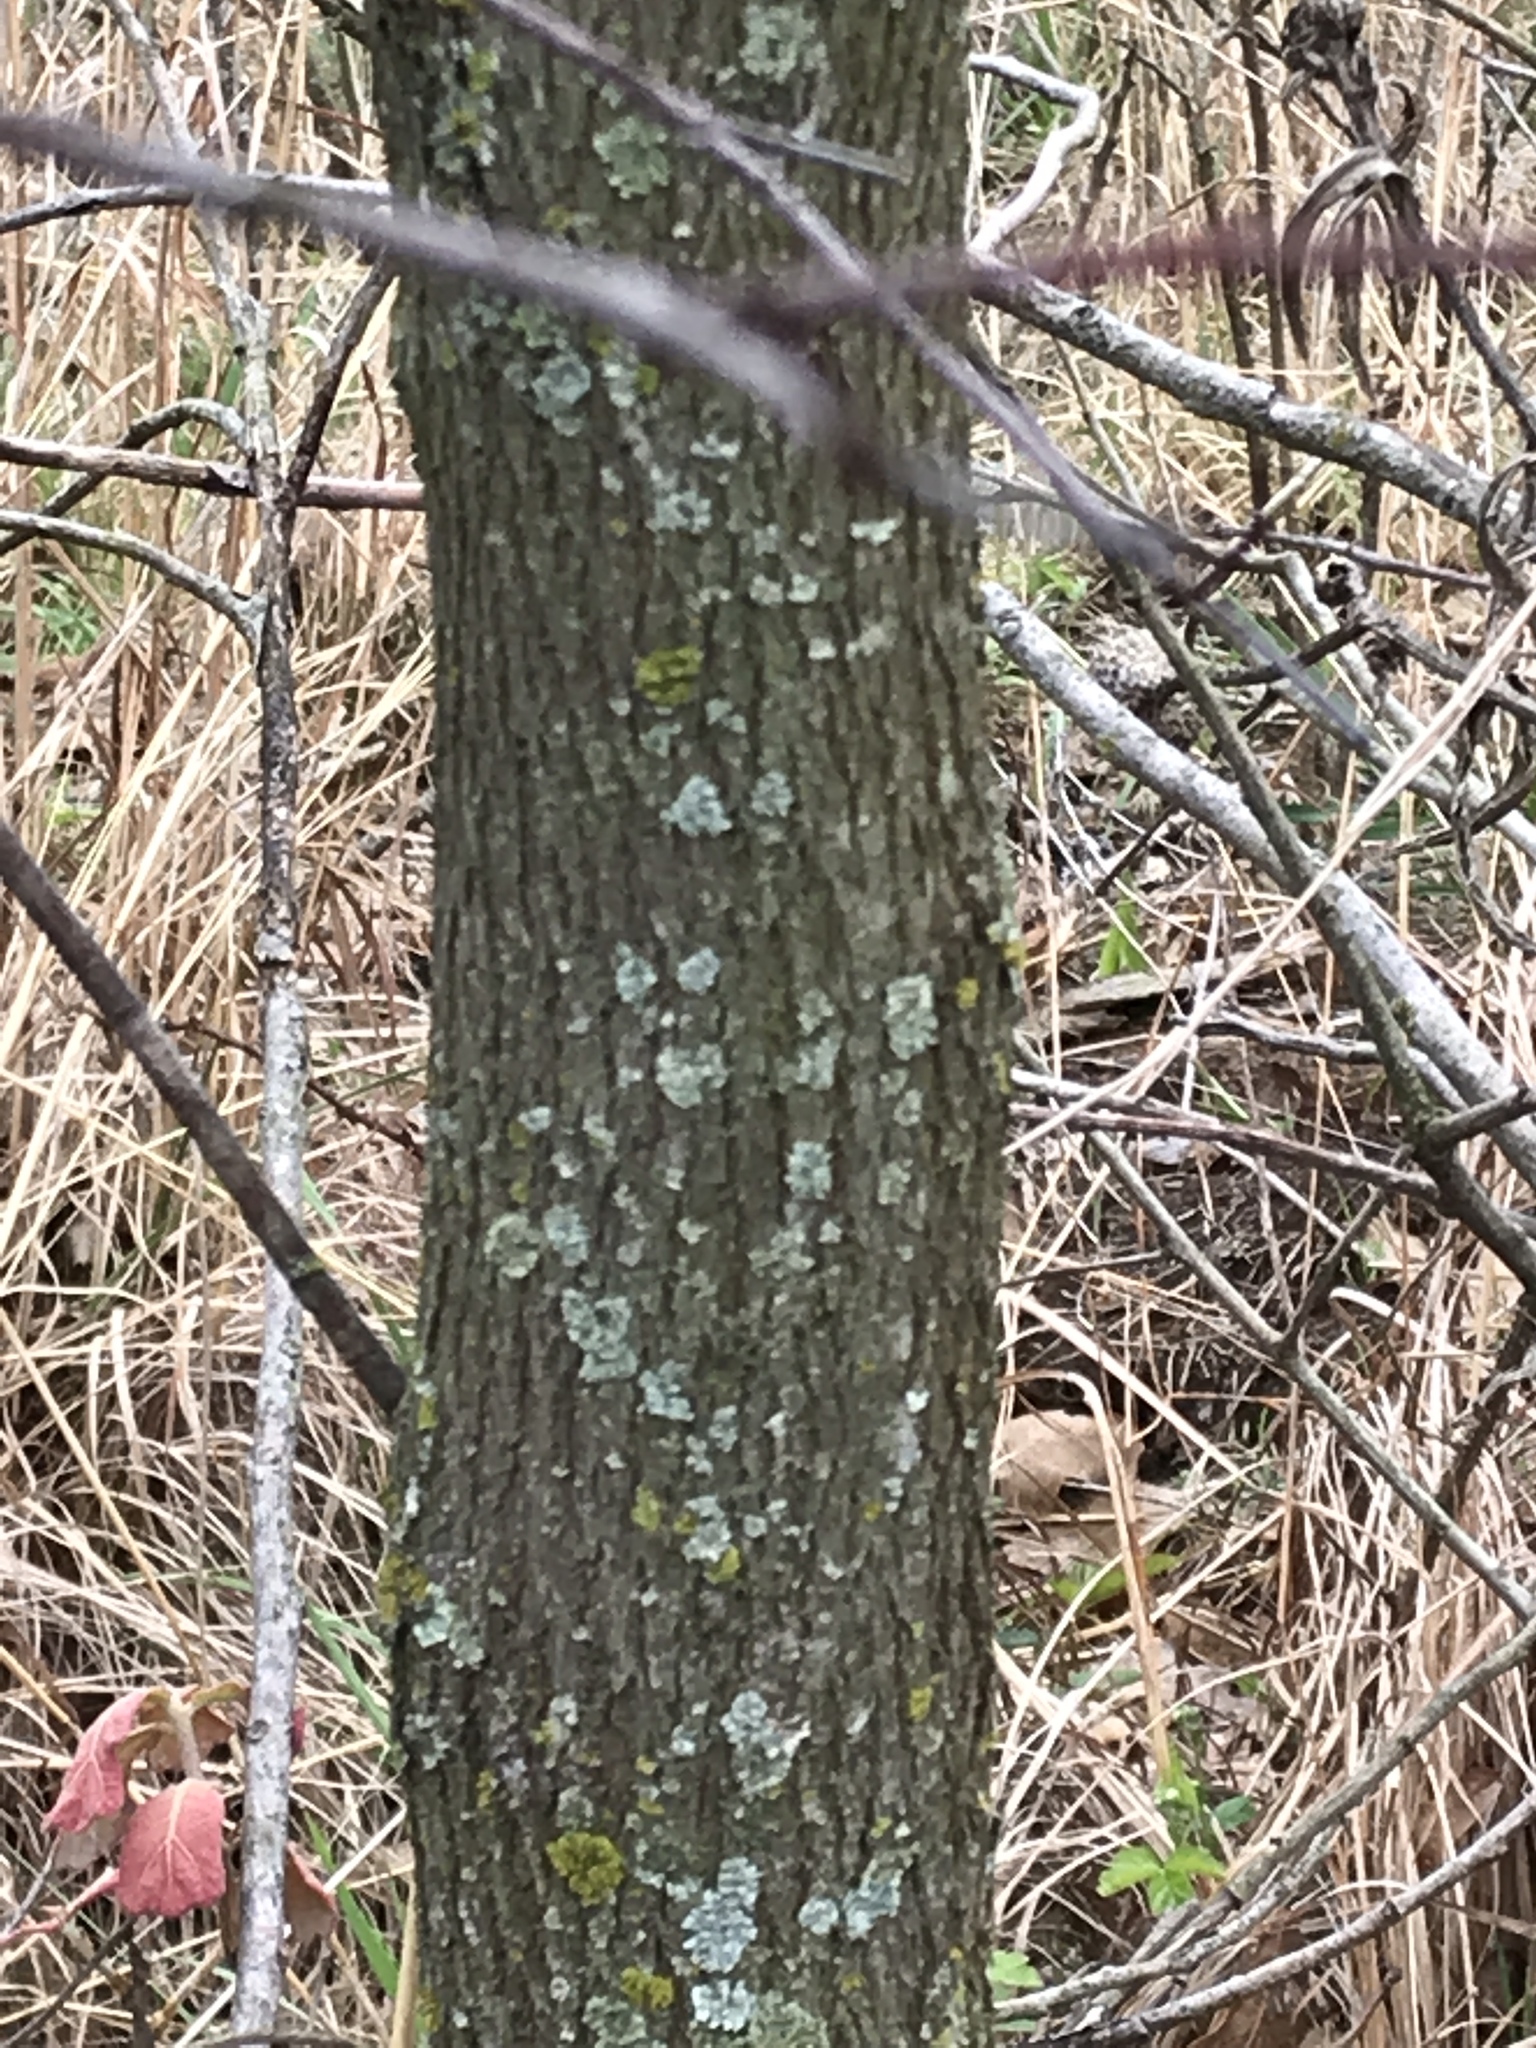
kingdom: Plantae
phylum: Tracheophyta
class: Magnoliopsida
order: Fabales
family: Fabaceae
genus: Cercis
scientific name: Cercis canadensis
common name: Eastern redbud
